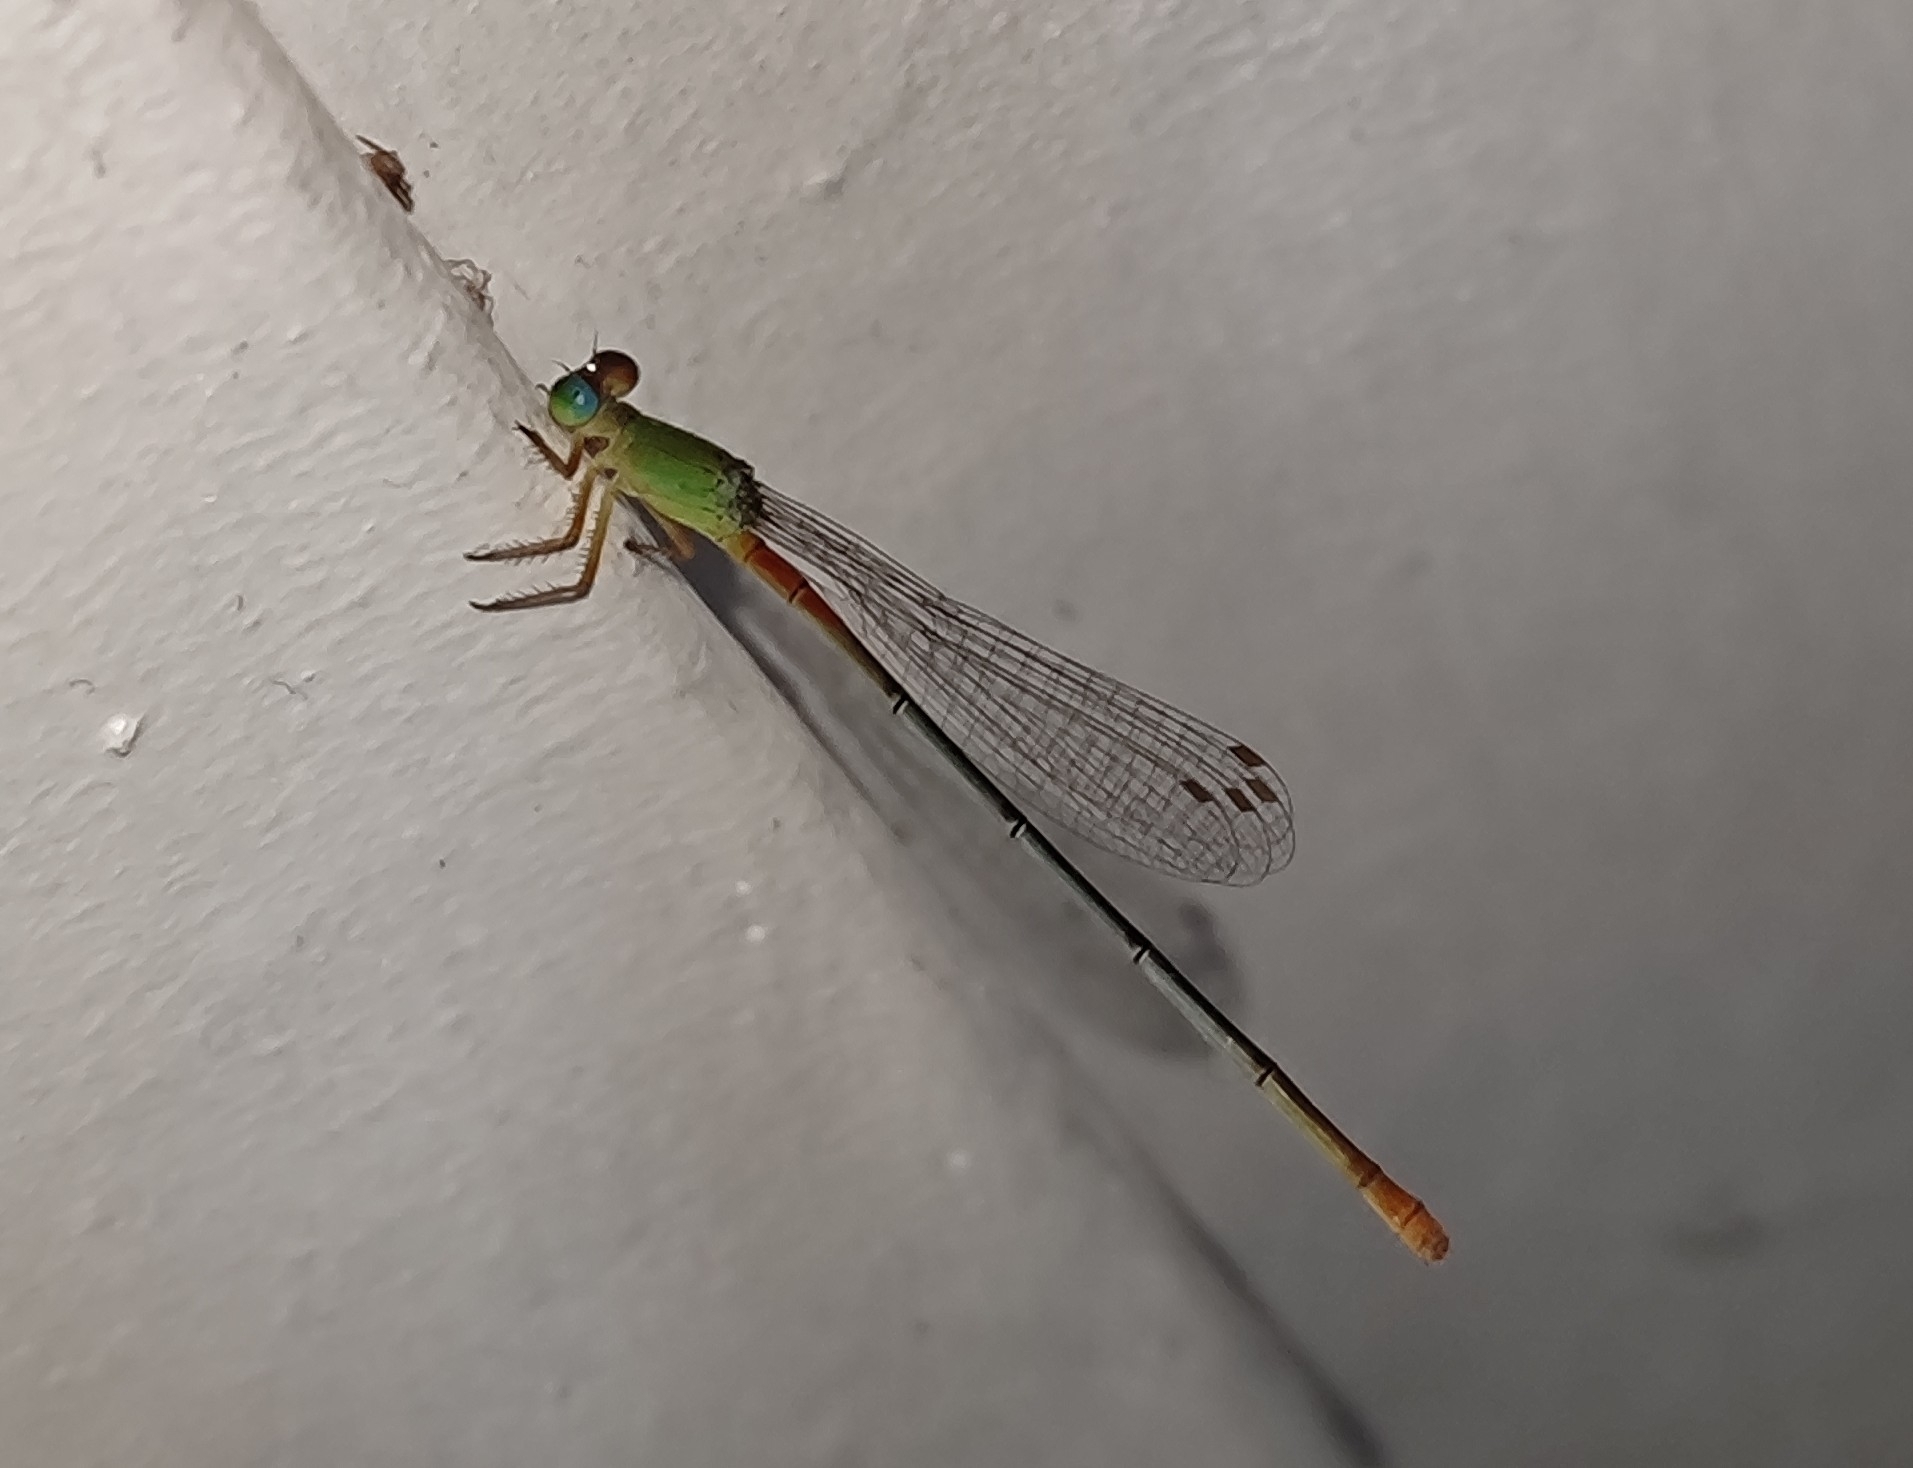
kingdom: Animalia
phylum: Arthropoda
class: Insecta
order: Odonata
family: Coenagrionidae
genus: Ceriagrion
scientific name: Ceriagrion cerinorubellum
